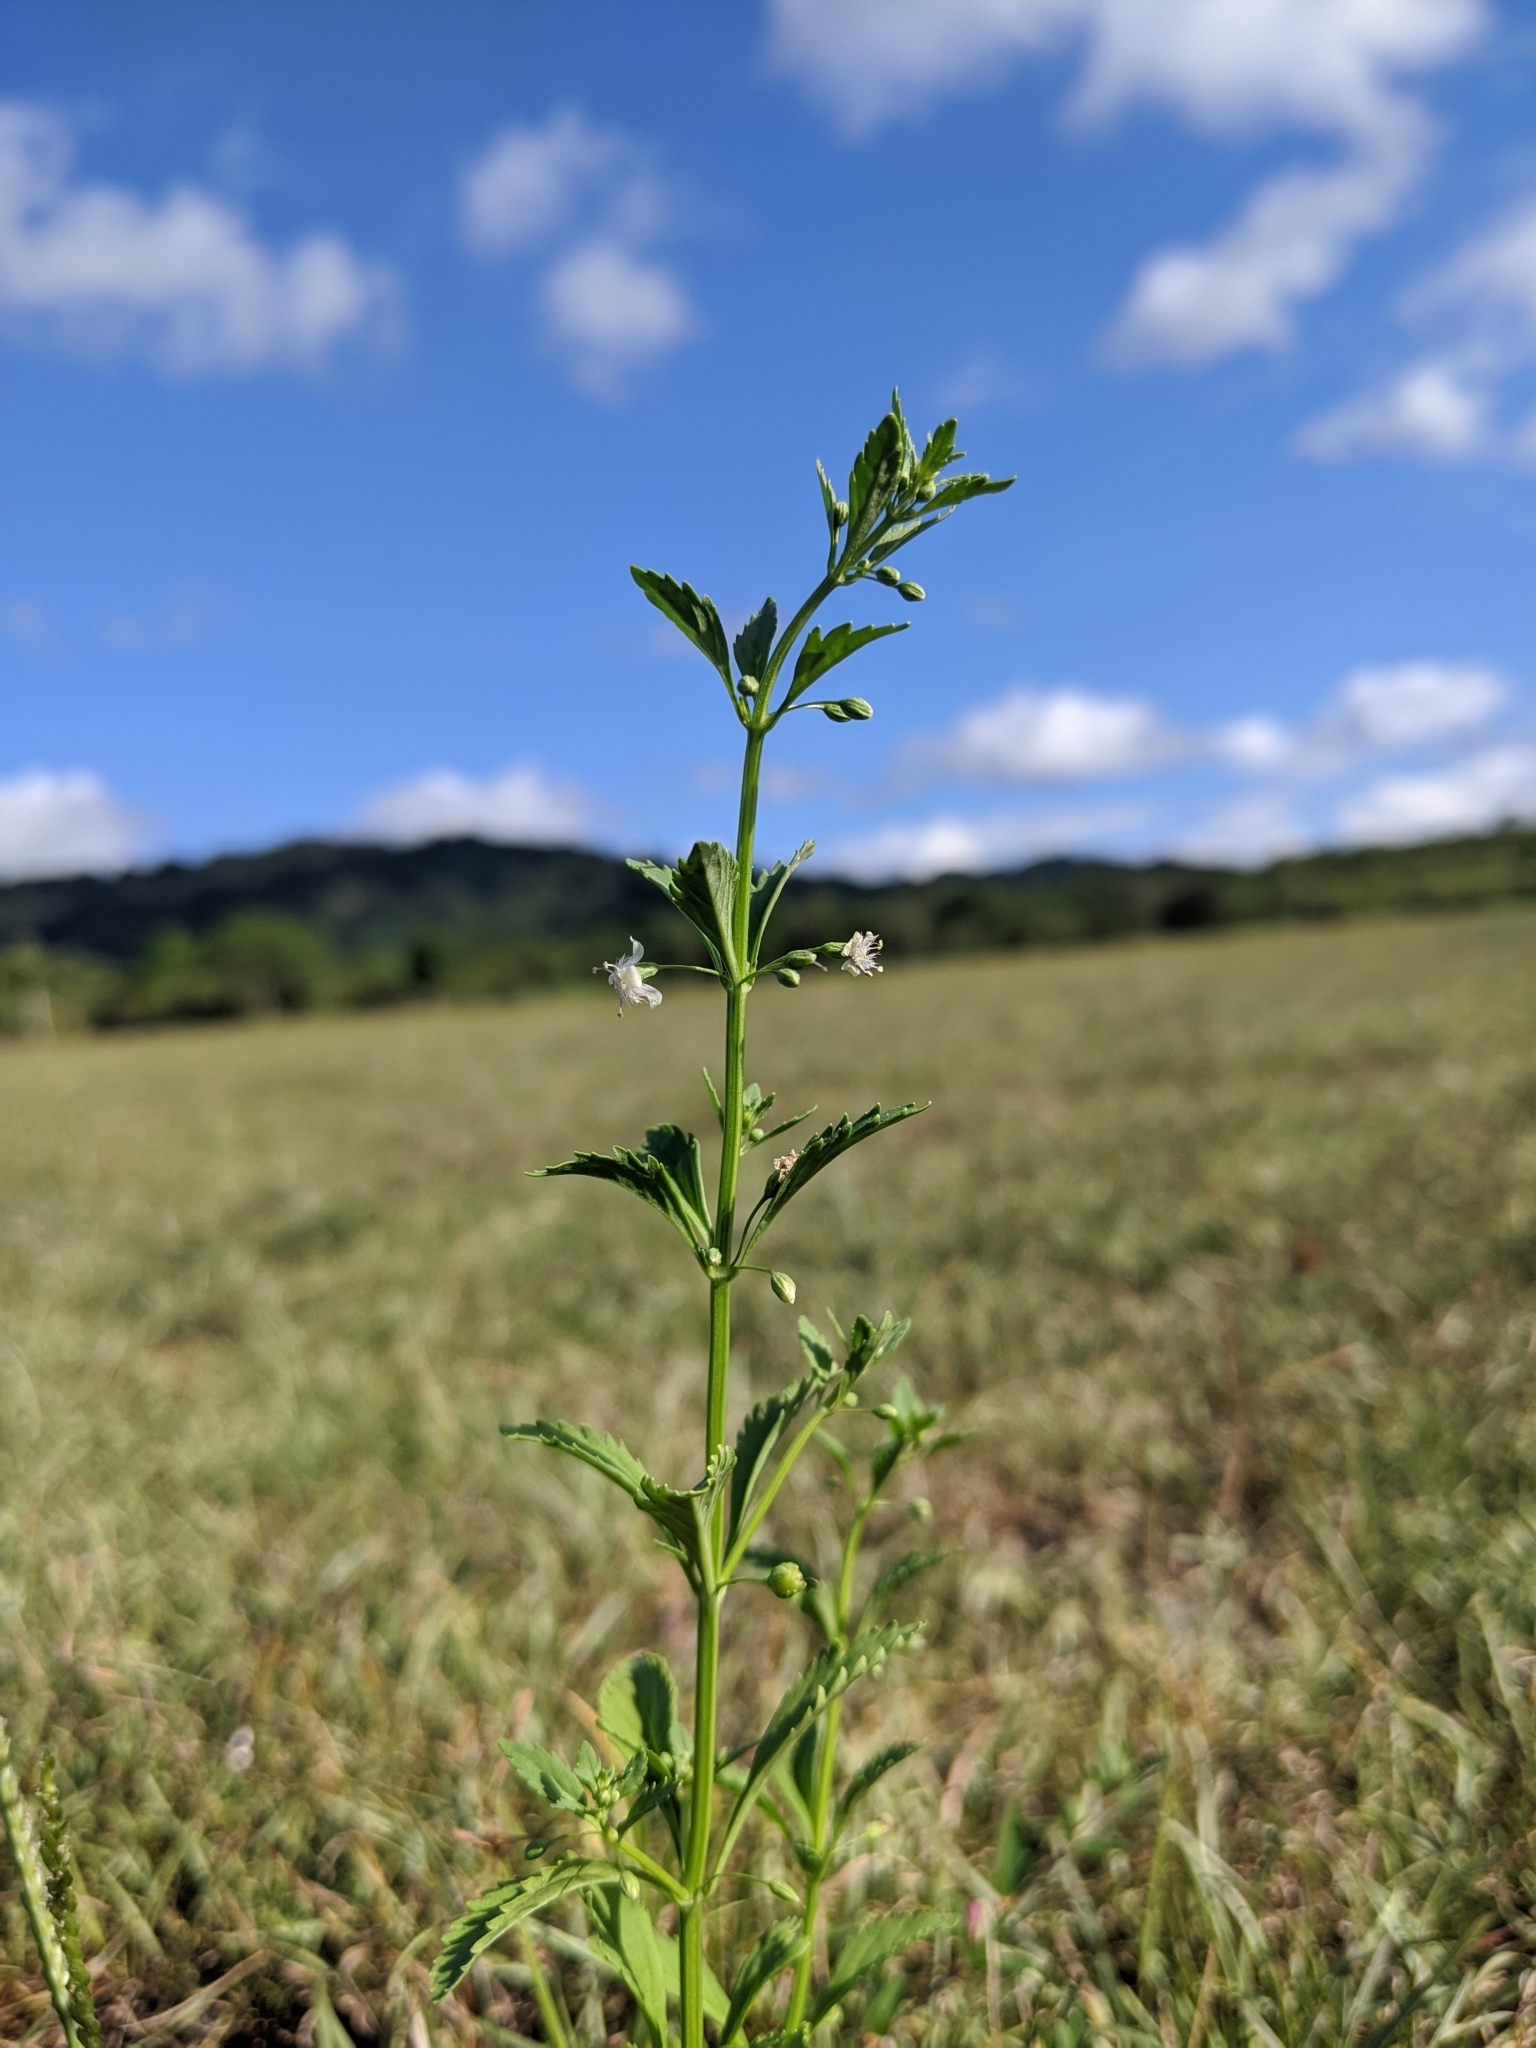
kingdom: Plantae
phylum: Tracheophyta
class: Magnoliopsida
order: Lamiales
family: Plantaginaceae
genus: Scoparia
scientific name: Scoparia dulcis
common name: Scoparia-weed
